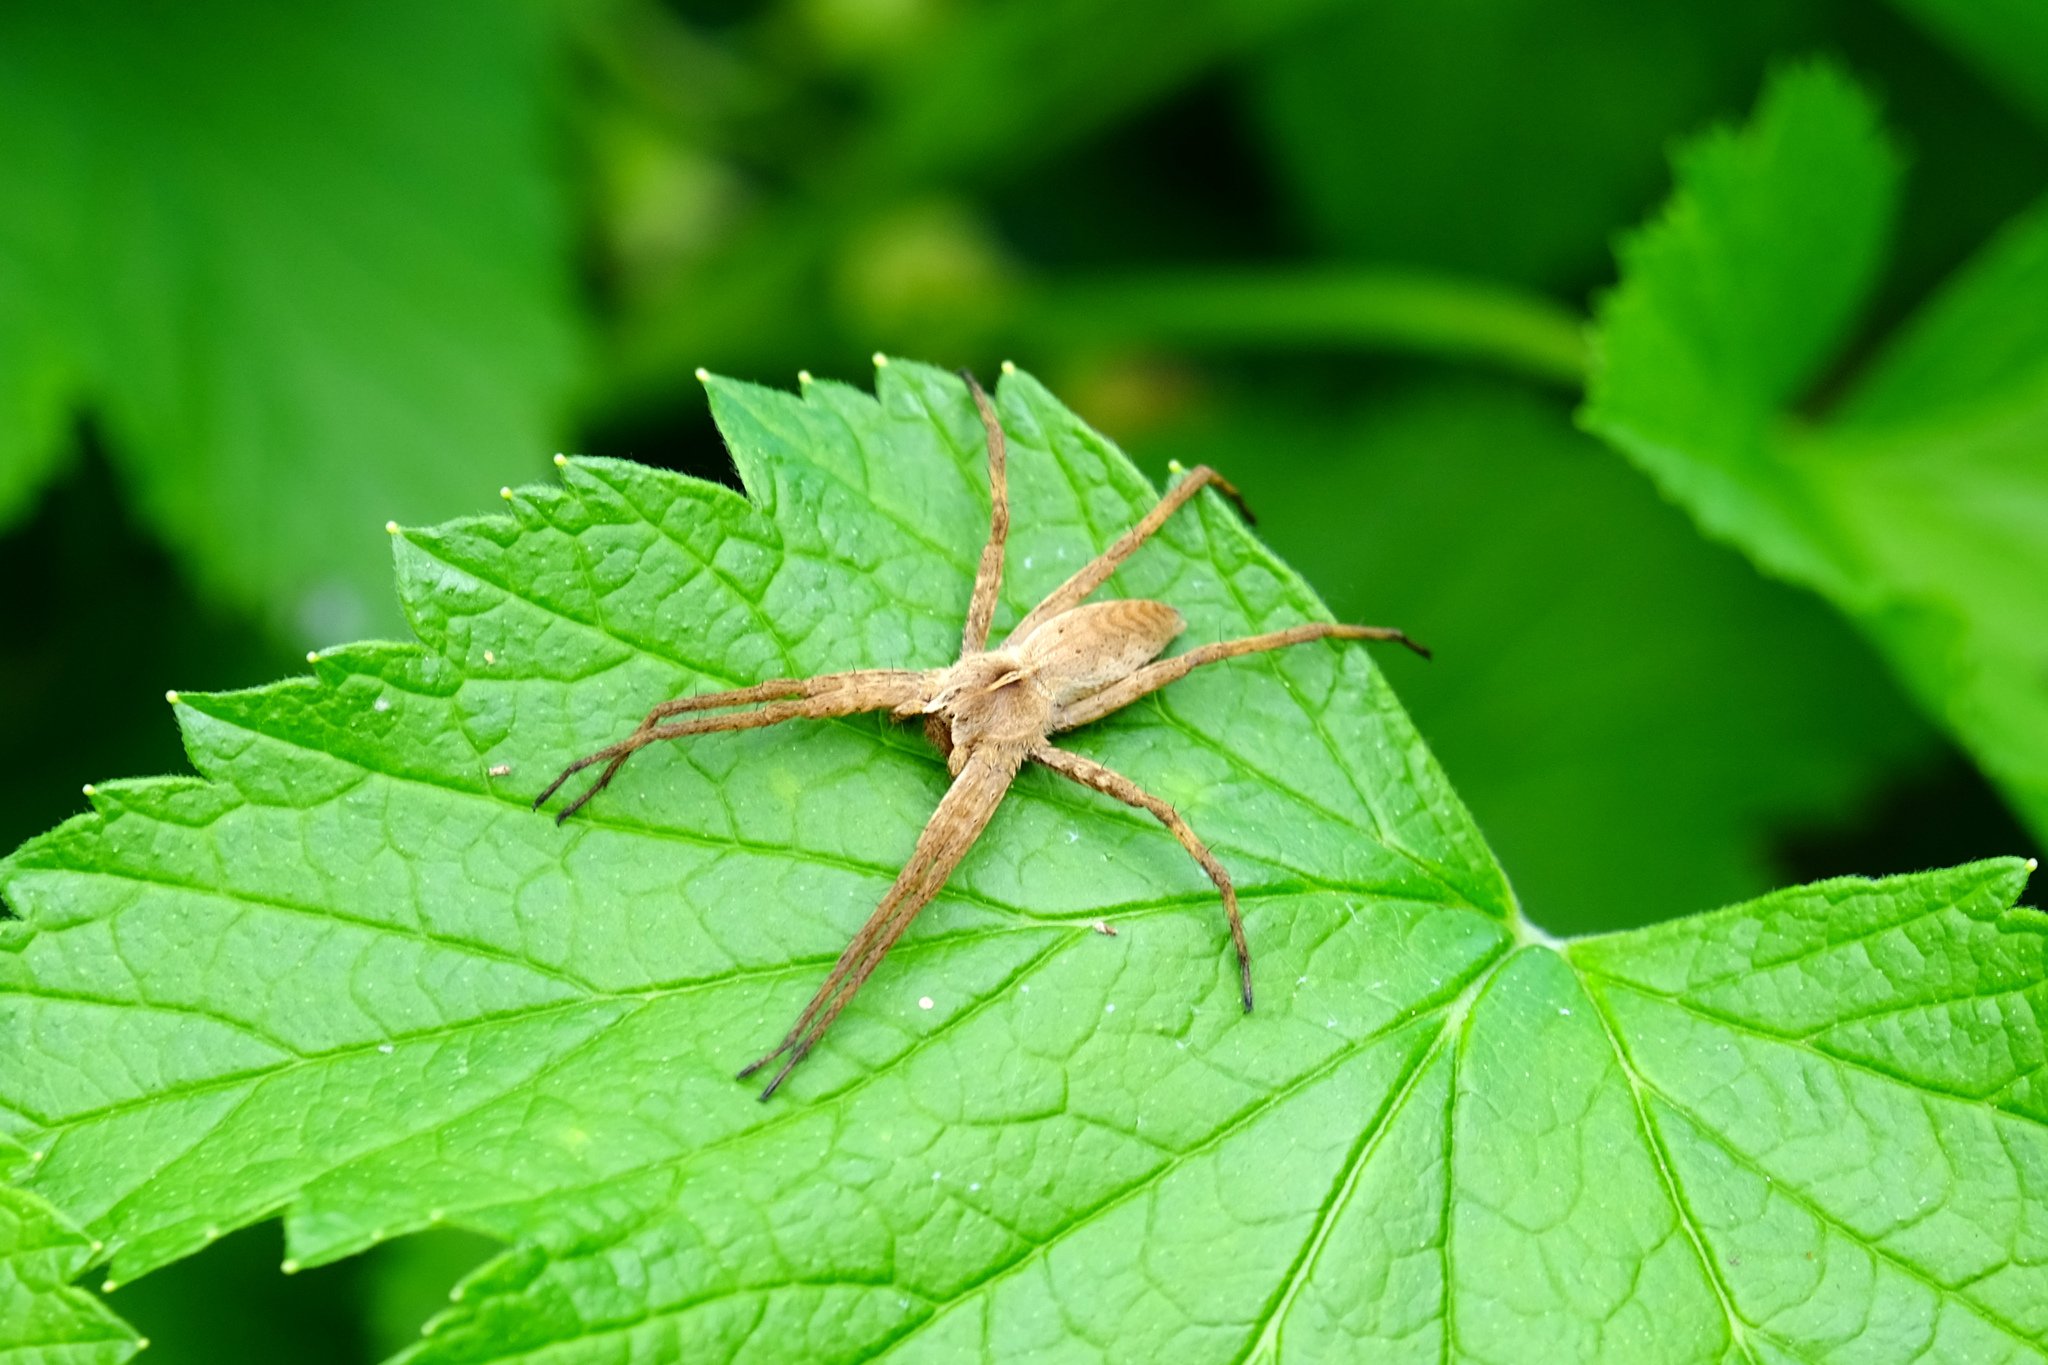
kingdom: Animalia
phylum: Arthropoda
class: Arachnida
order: Araneae
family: Pisauridae
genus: Pisaura
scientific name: Pisaura
